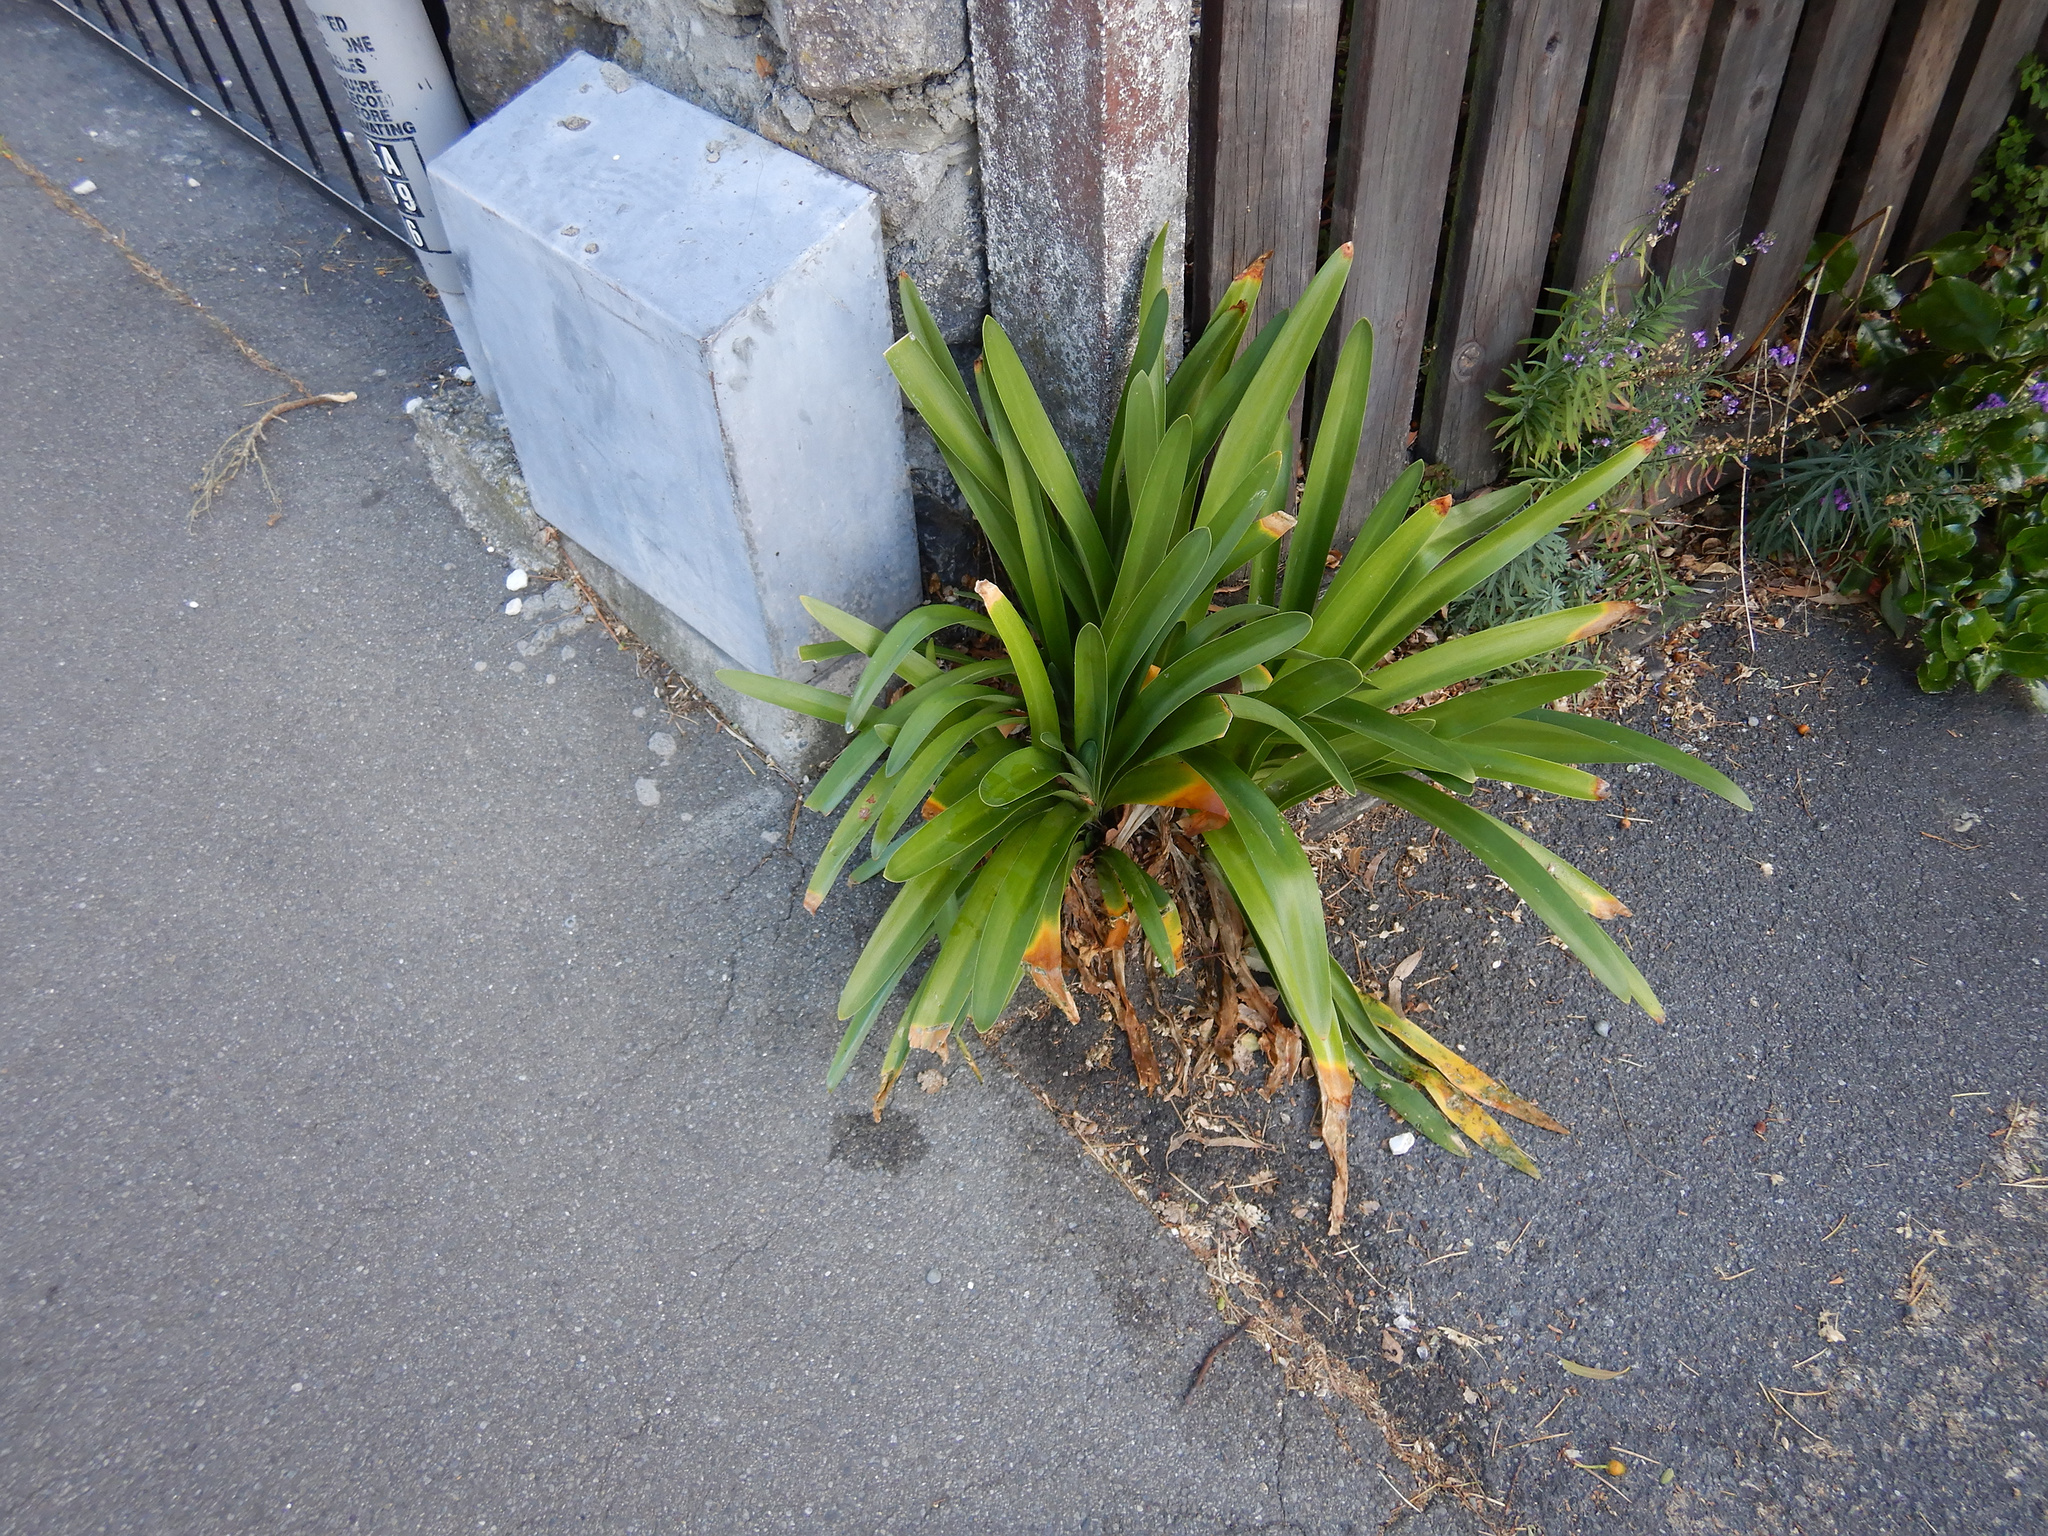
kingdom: Plantae
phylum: Tracheophyta
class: Liliopsida
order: Asparagales
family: Amaryllidaceae
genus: Agapanthus
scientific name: Agapanthus praecox
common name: African-lily
